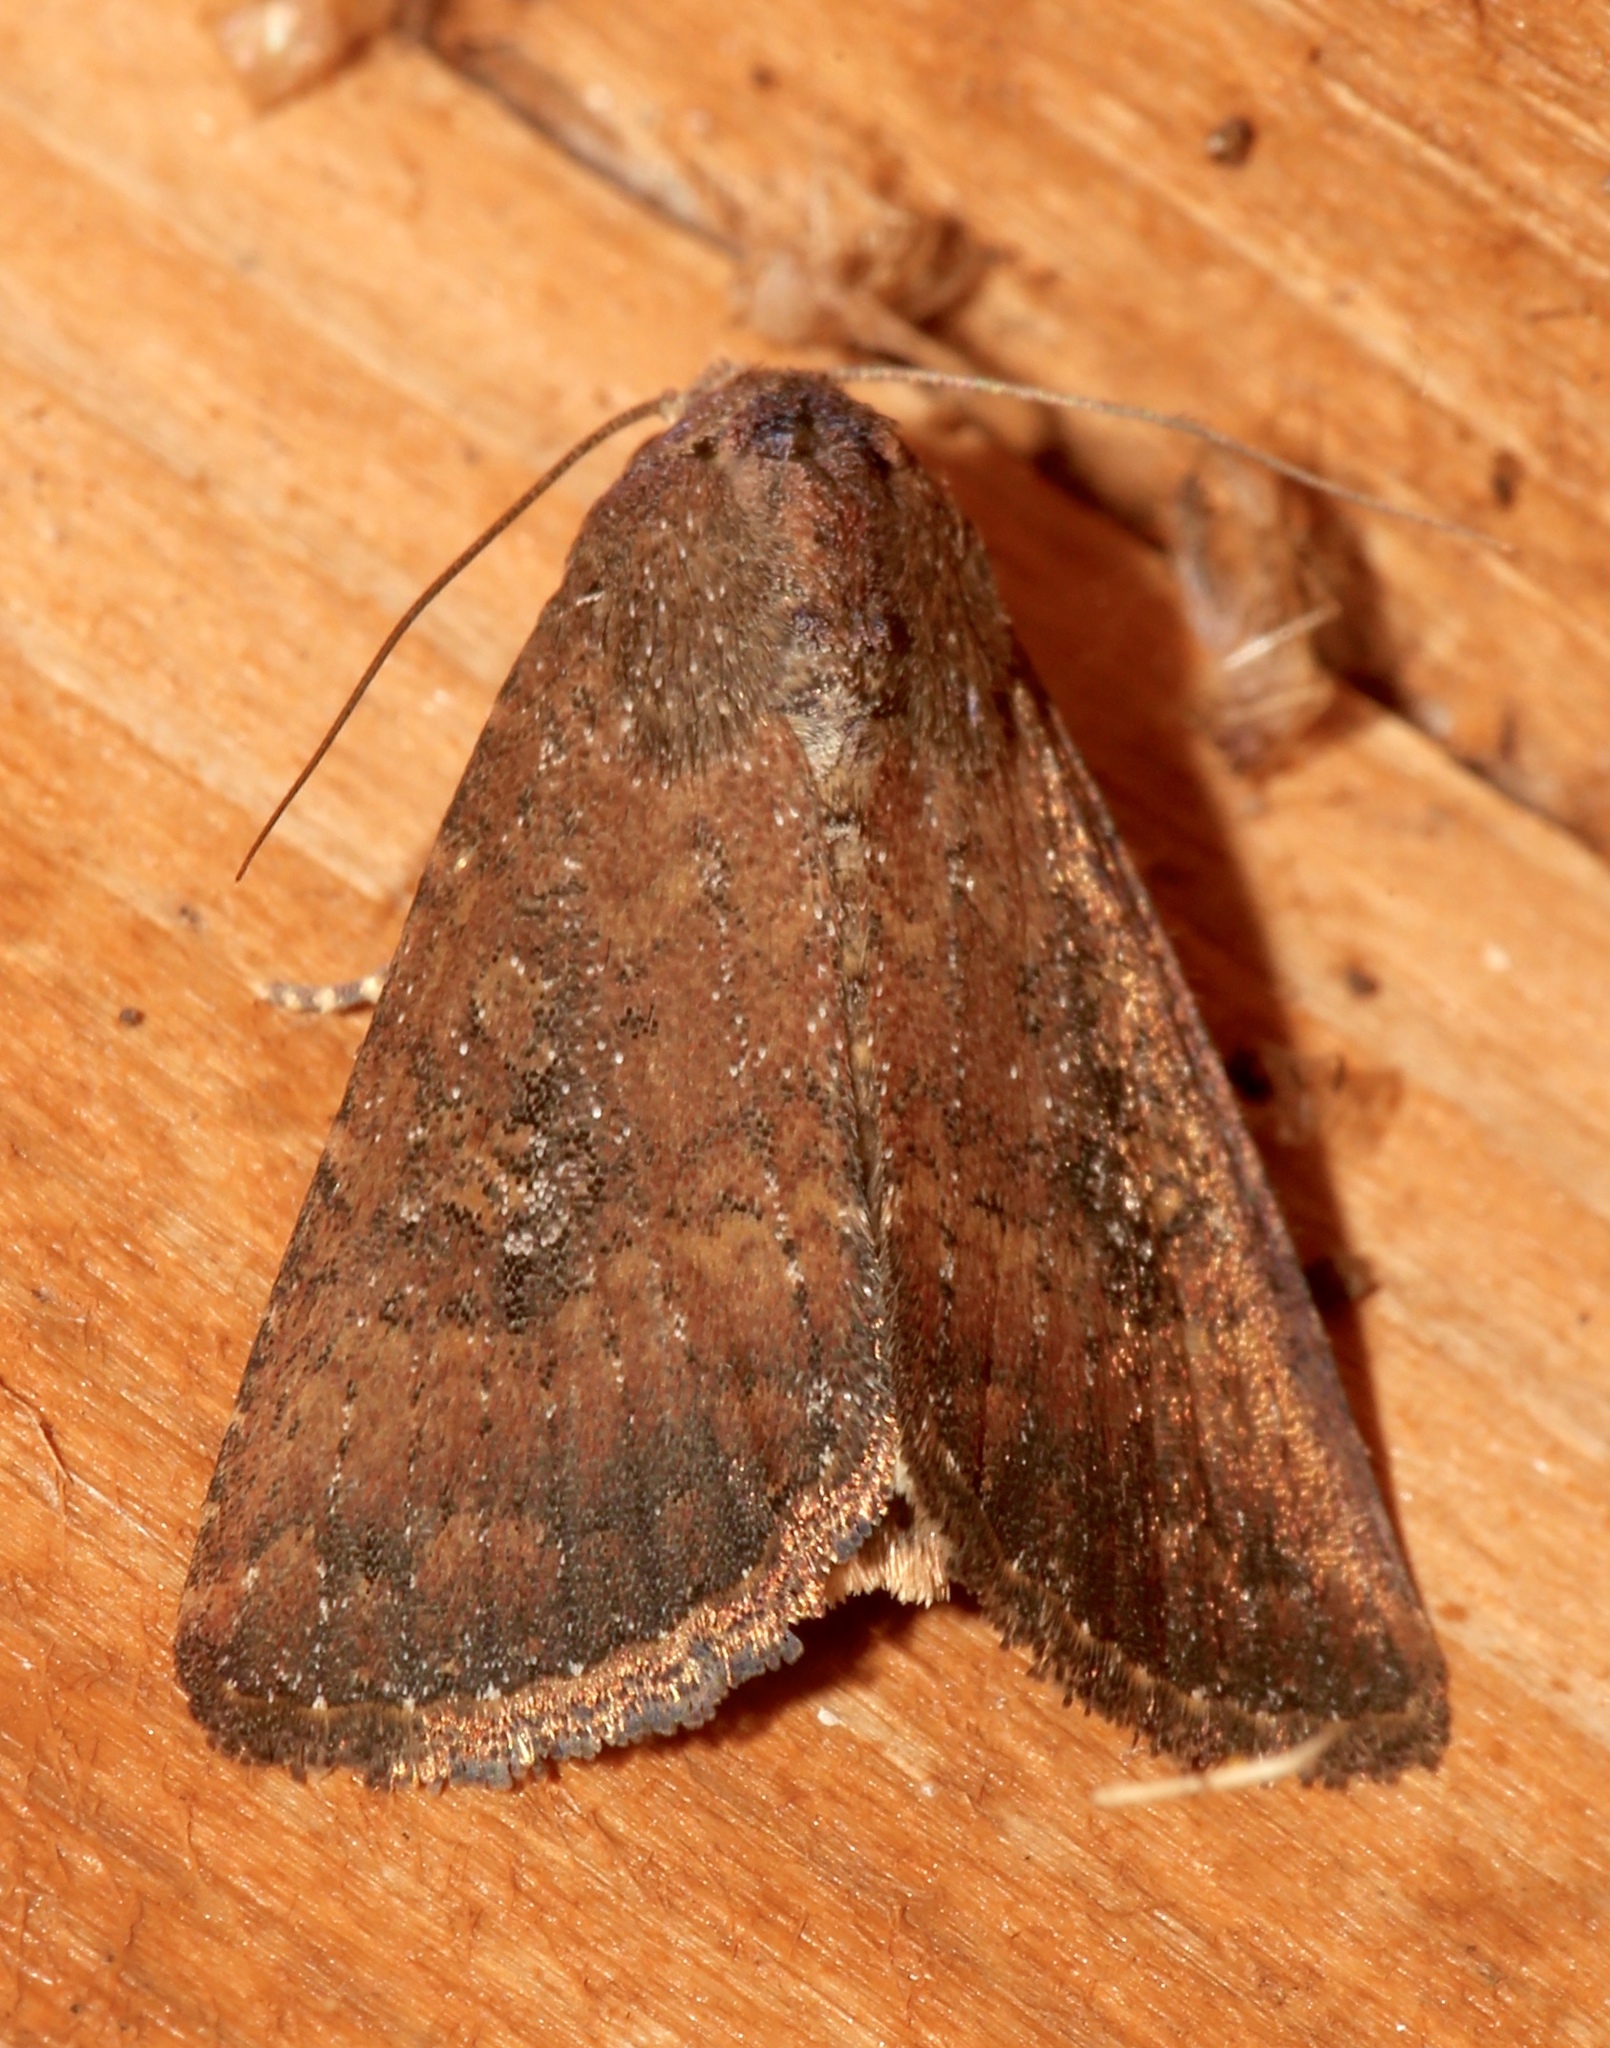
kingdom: Animalia
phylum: Arthropoda
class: Insecta
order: Lepidoptera
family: Noctuidae
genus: Condica
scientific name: Condica sutor
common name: Cobbler moth
